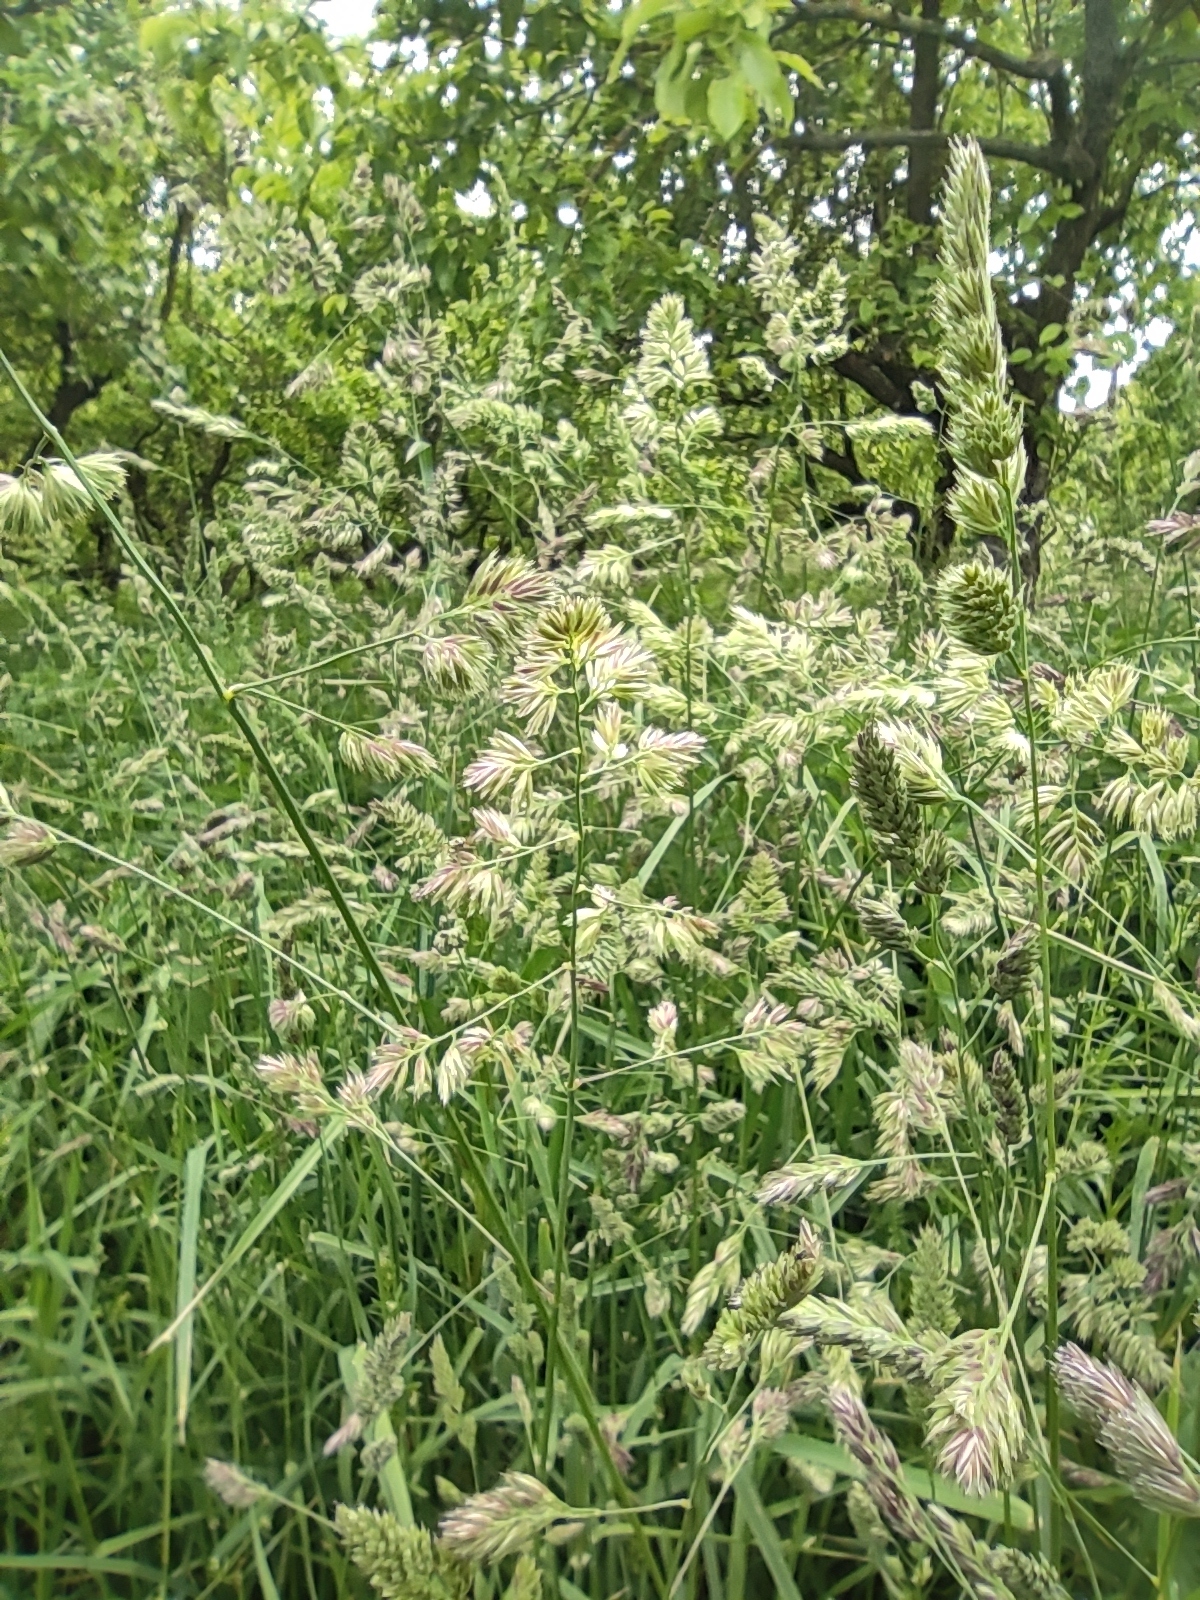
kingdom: Plantae
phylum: Tracheophyta
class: Liliopsida
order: Poales
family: Poaceae
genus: Dactylis
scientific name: Dactylis glomerata
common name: Orchardgrass
